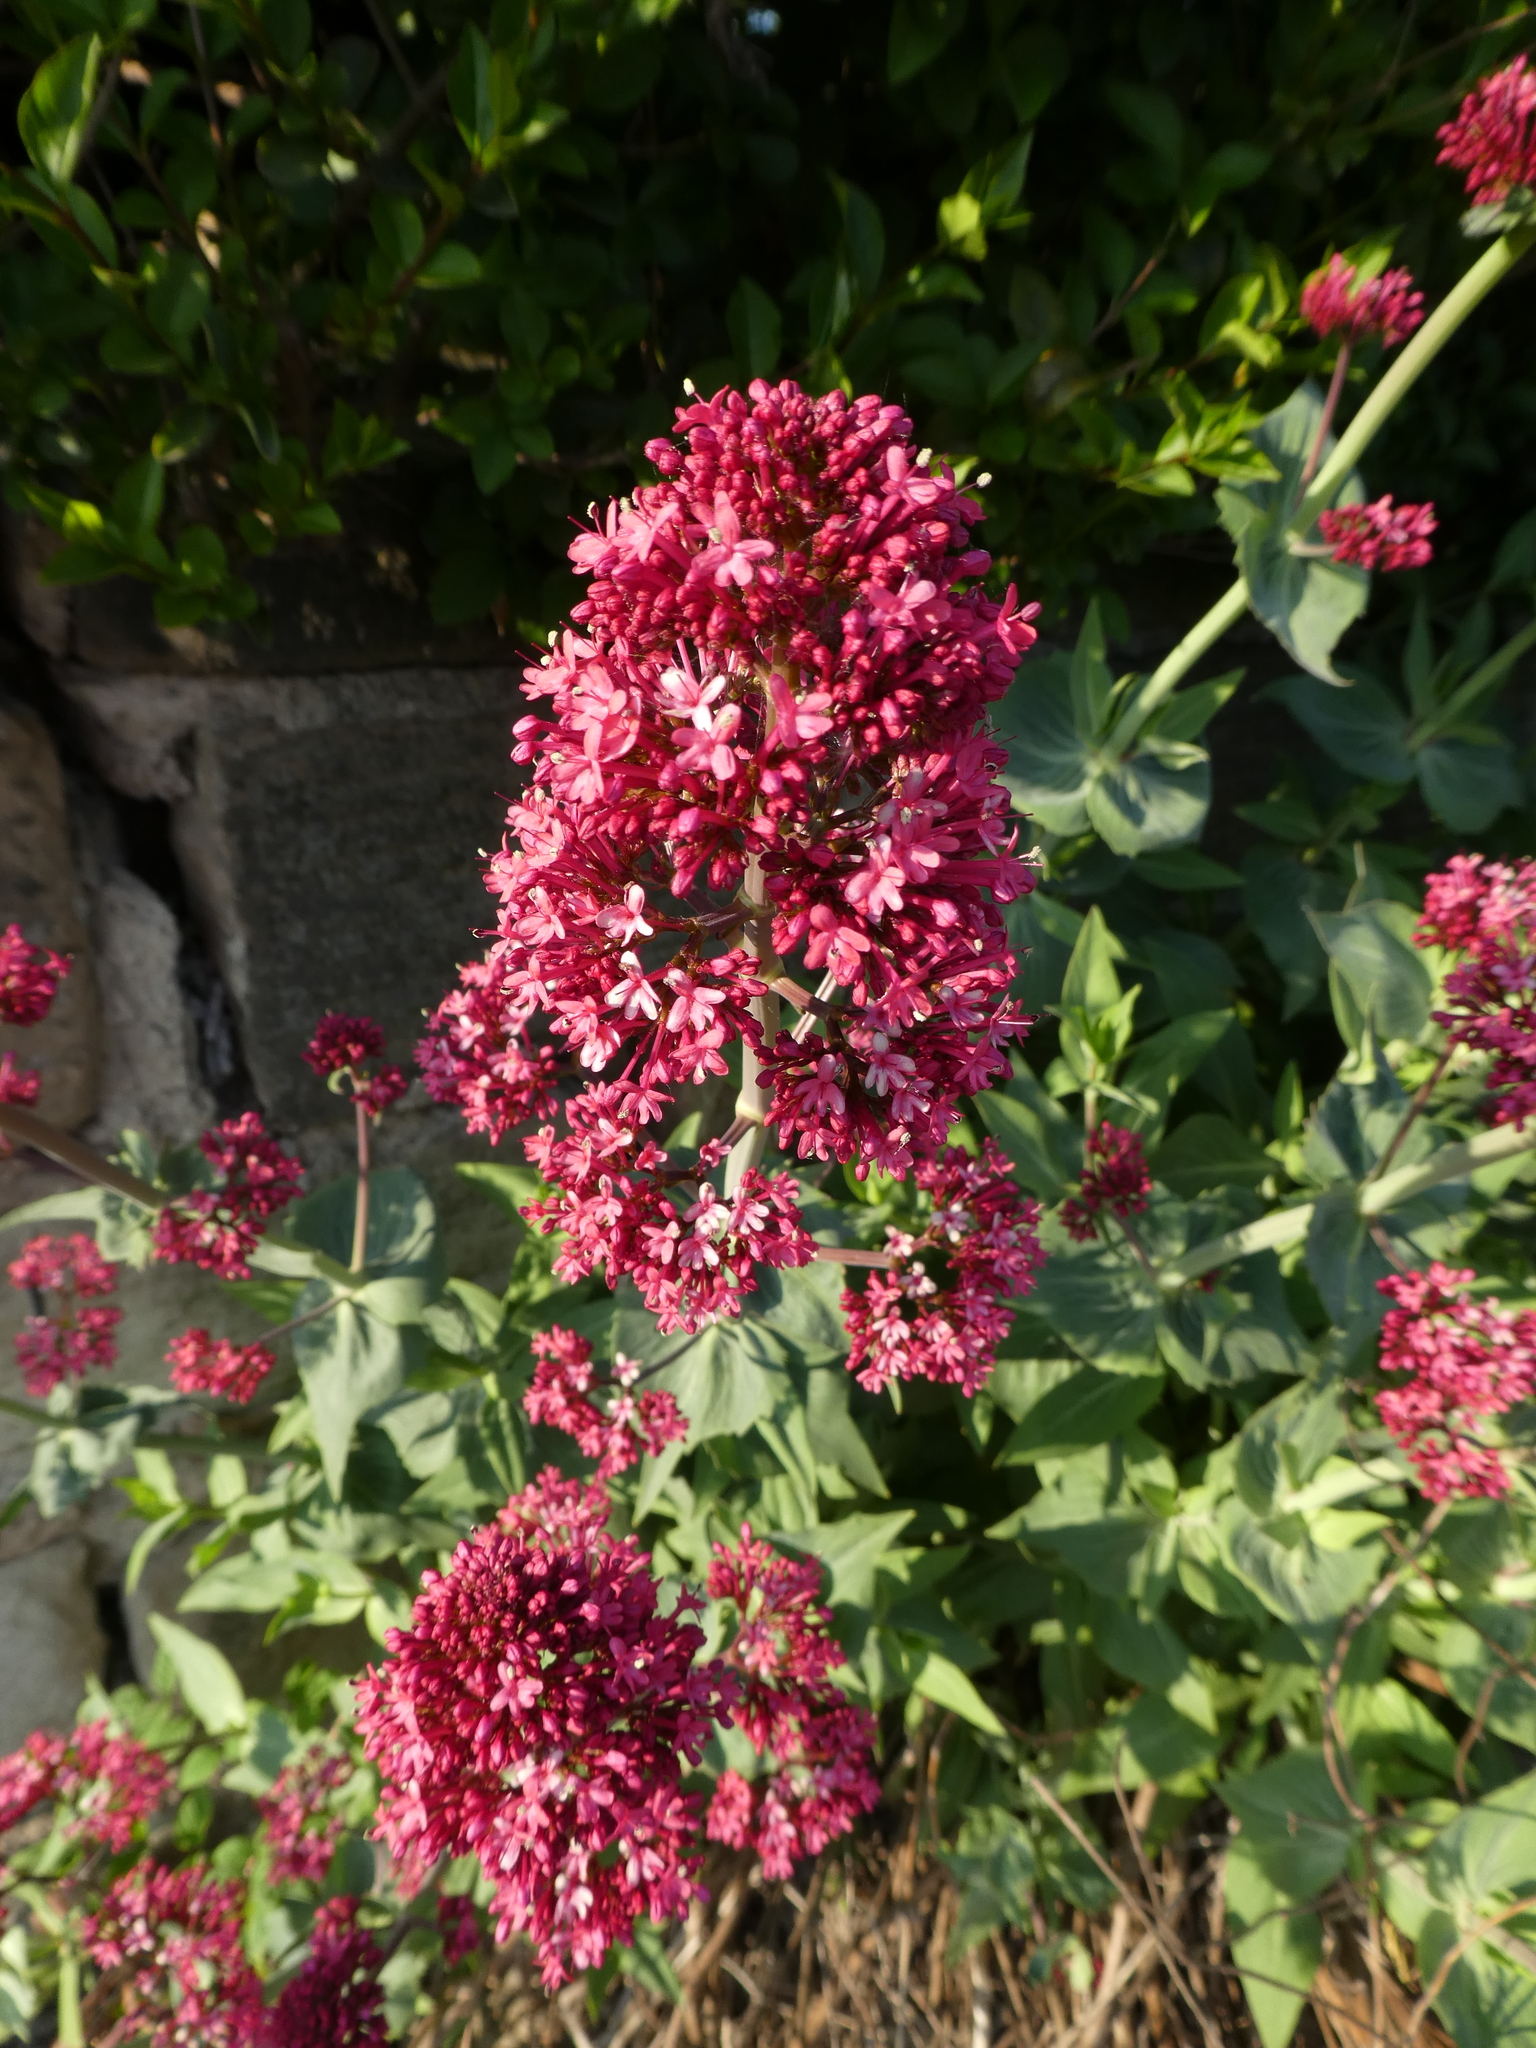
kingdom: Plantae
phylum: Tracheophyta
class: Magnoliopsida
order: Dipsacales
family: Caprifoliaceae
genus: Centranthus
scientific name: Centranthus ruber
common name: Red valerian
